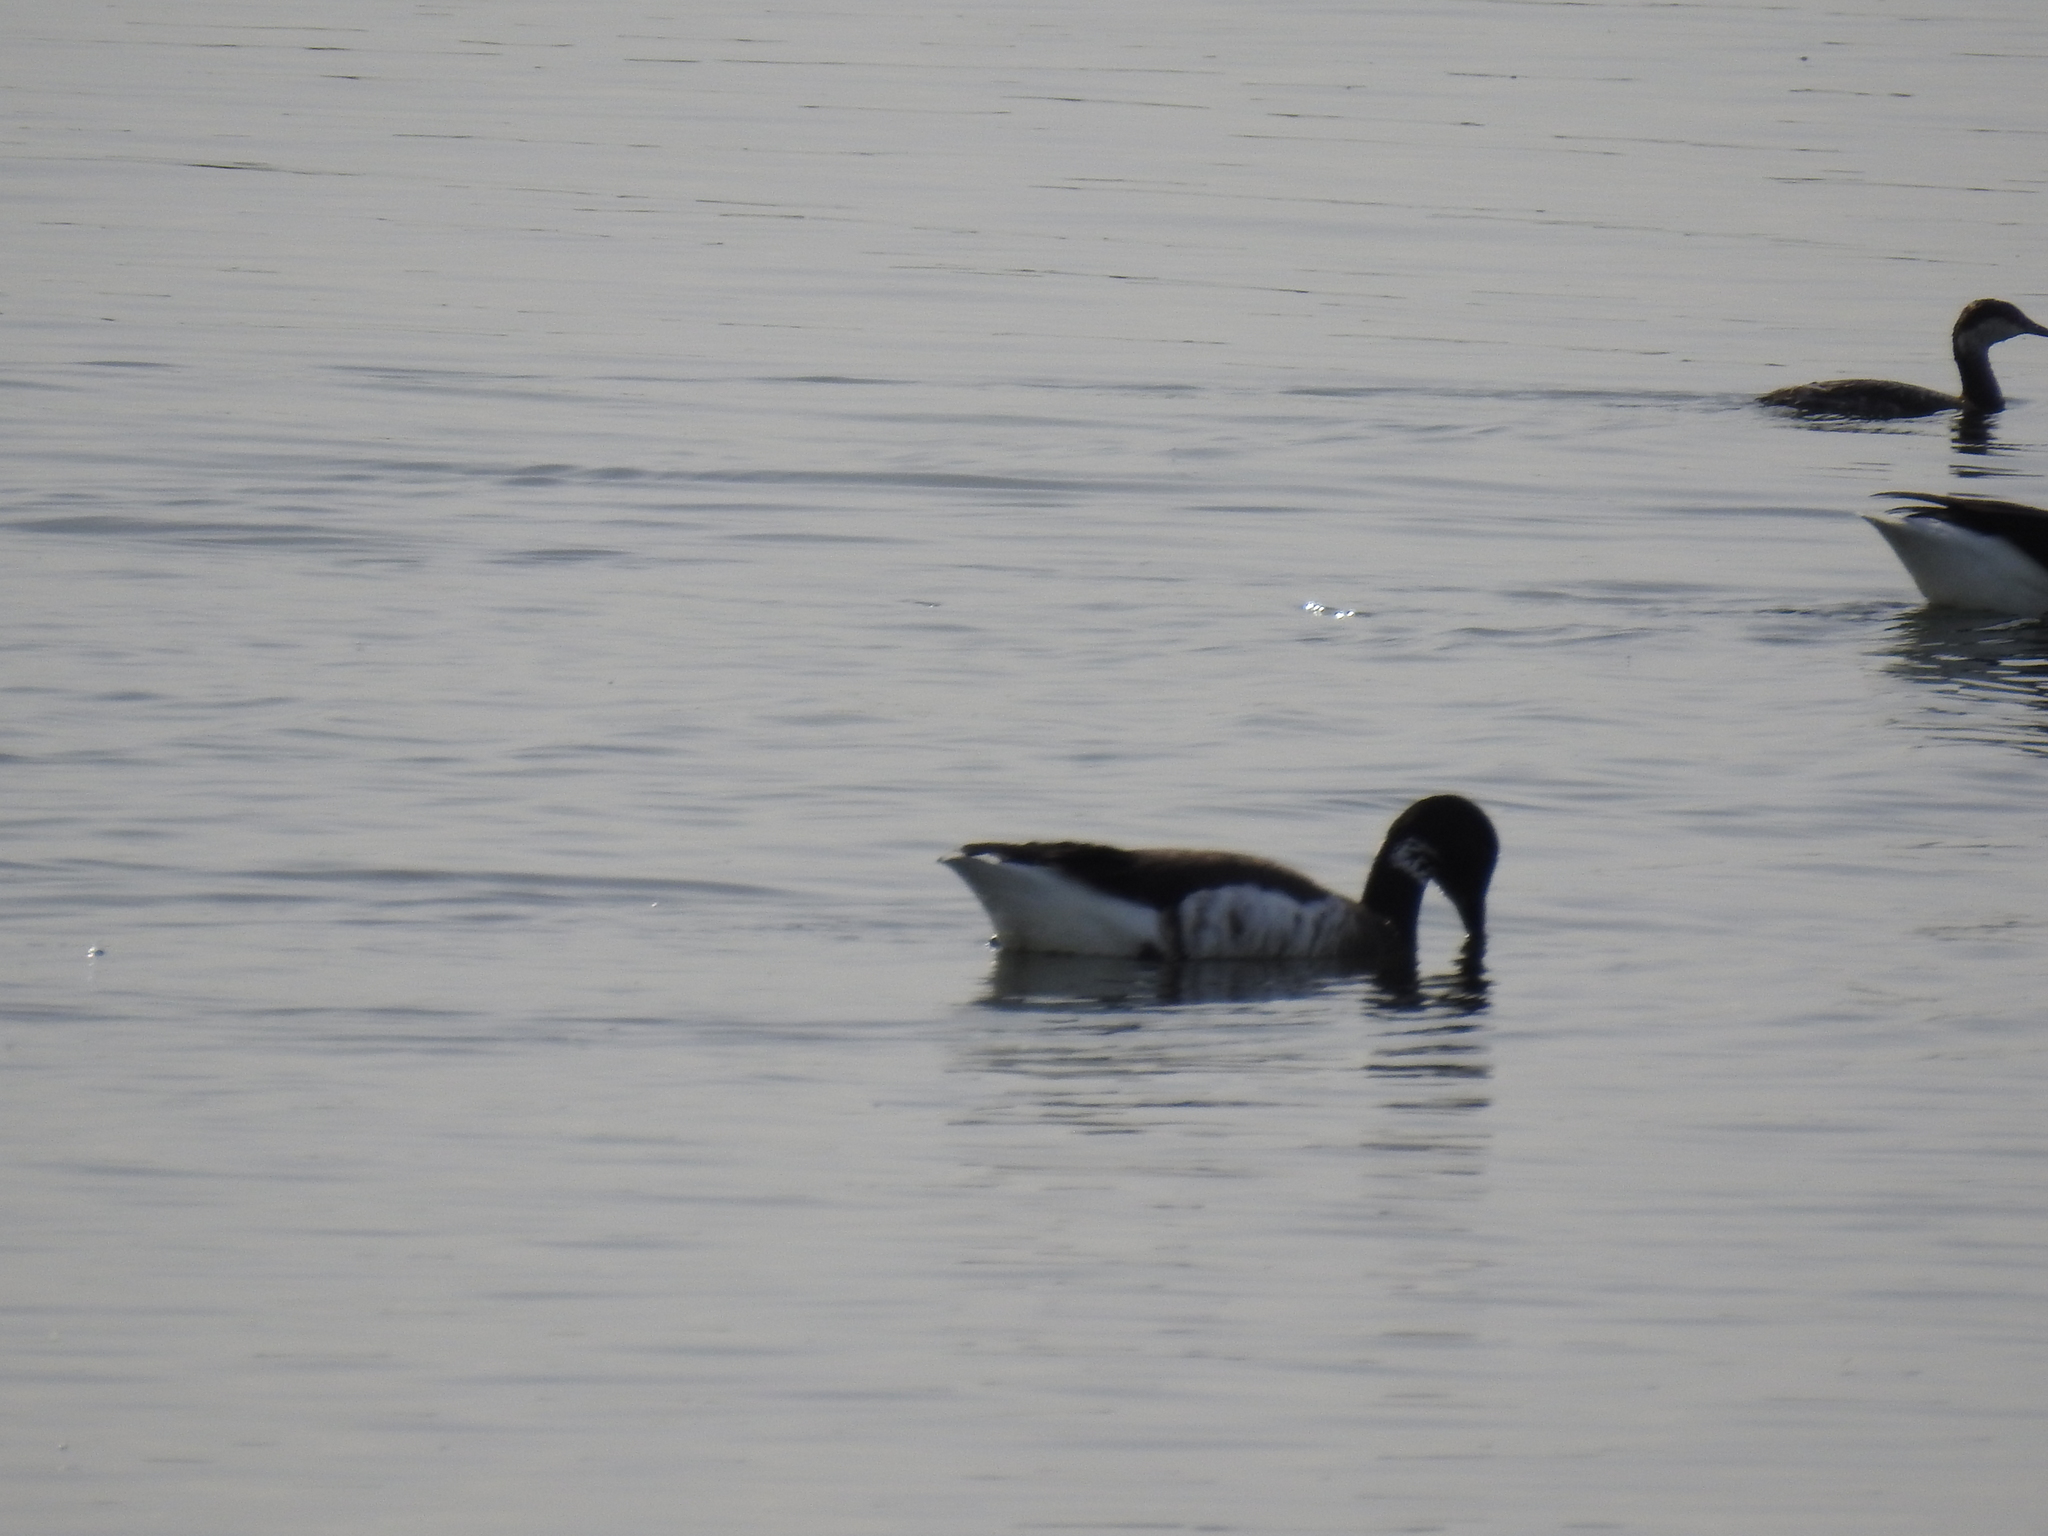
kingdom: Animalia
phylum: Chordata
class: Aves
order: Anseriformes
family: Anatidae
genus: Branta
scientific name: Branta bernicla
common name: Brant goose
